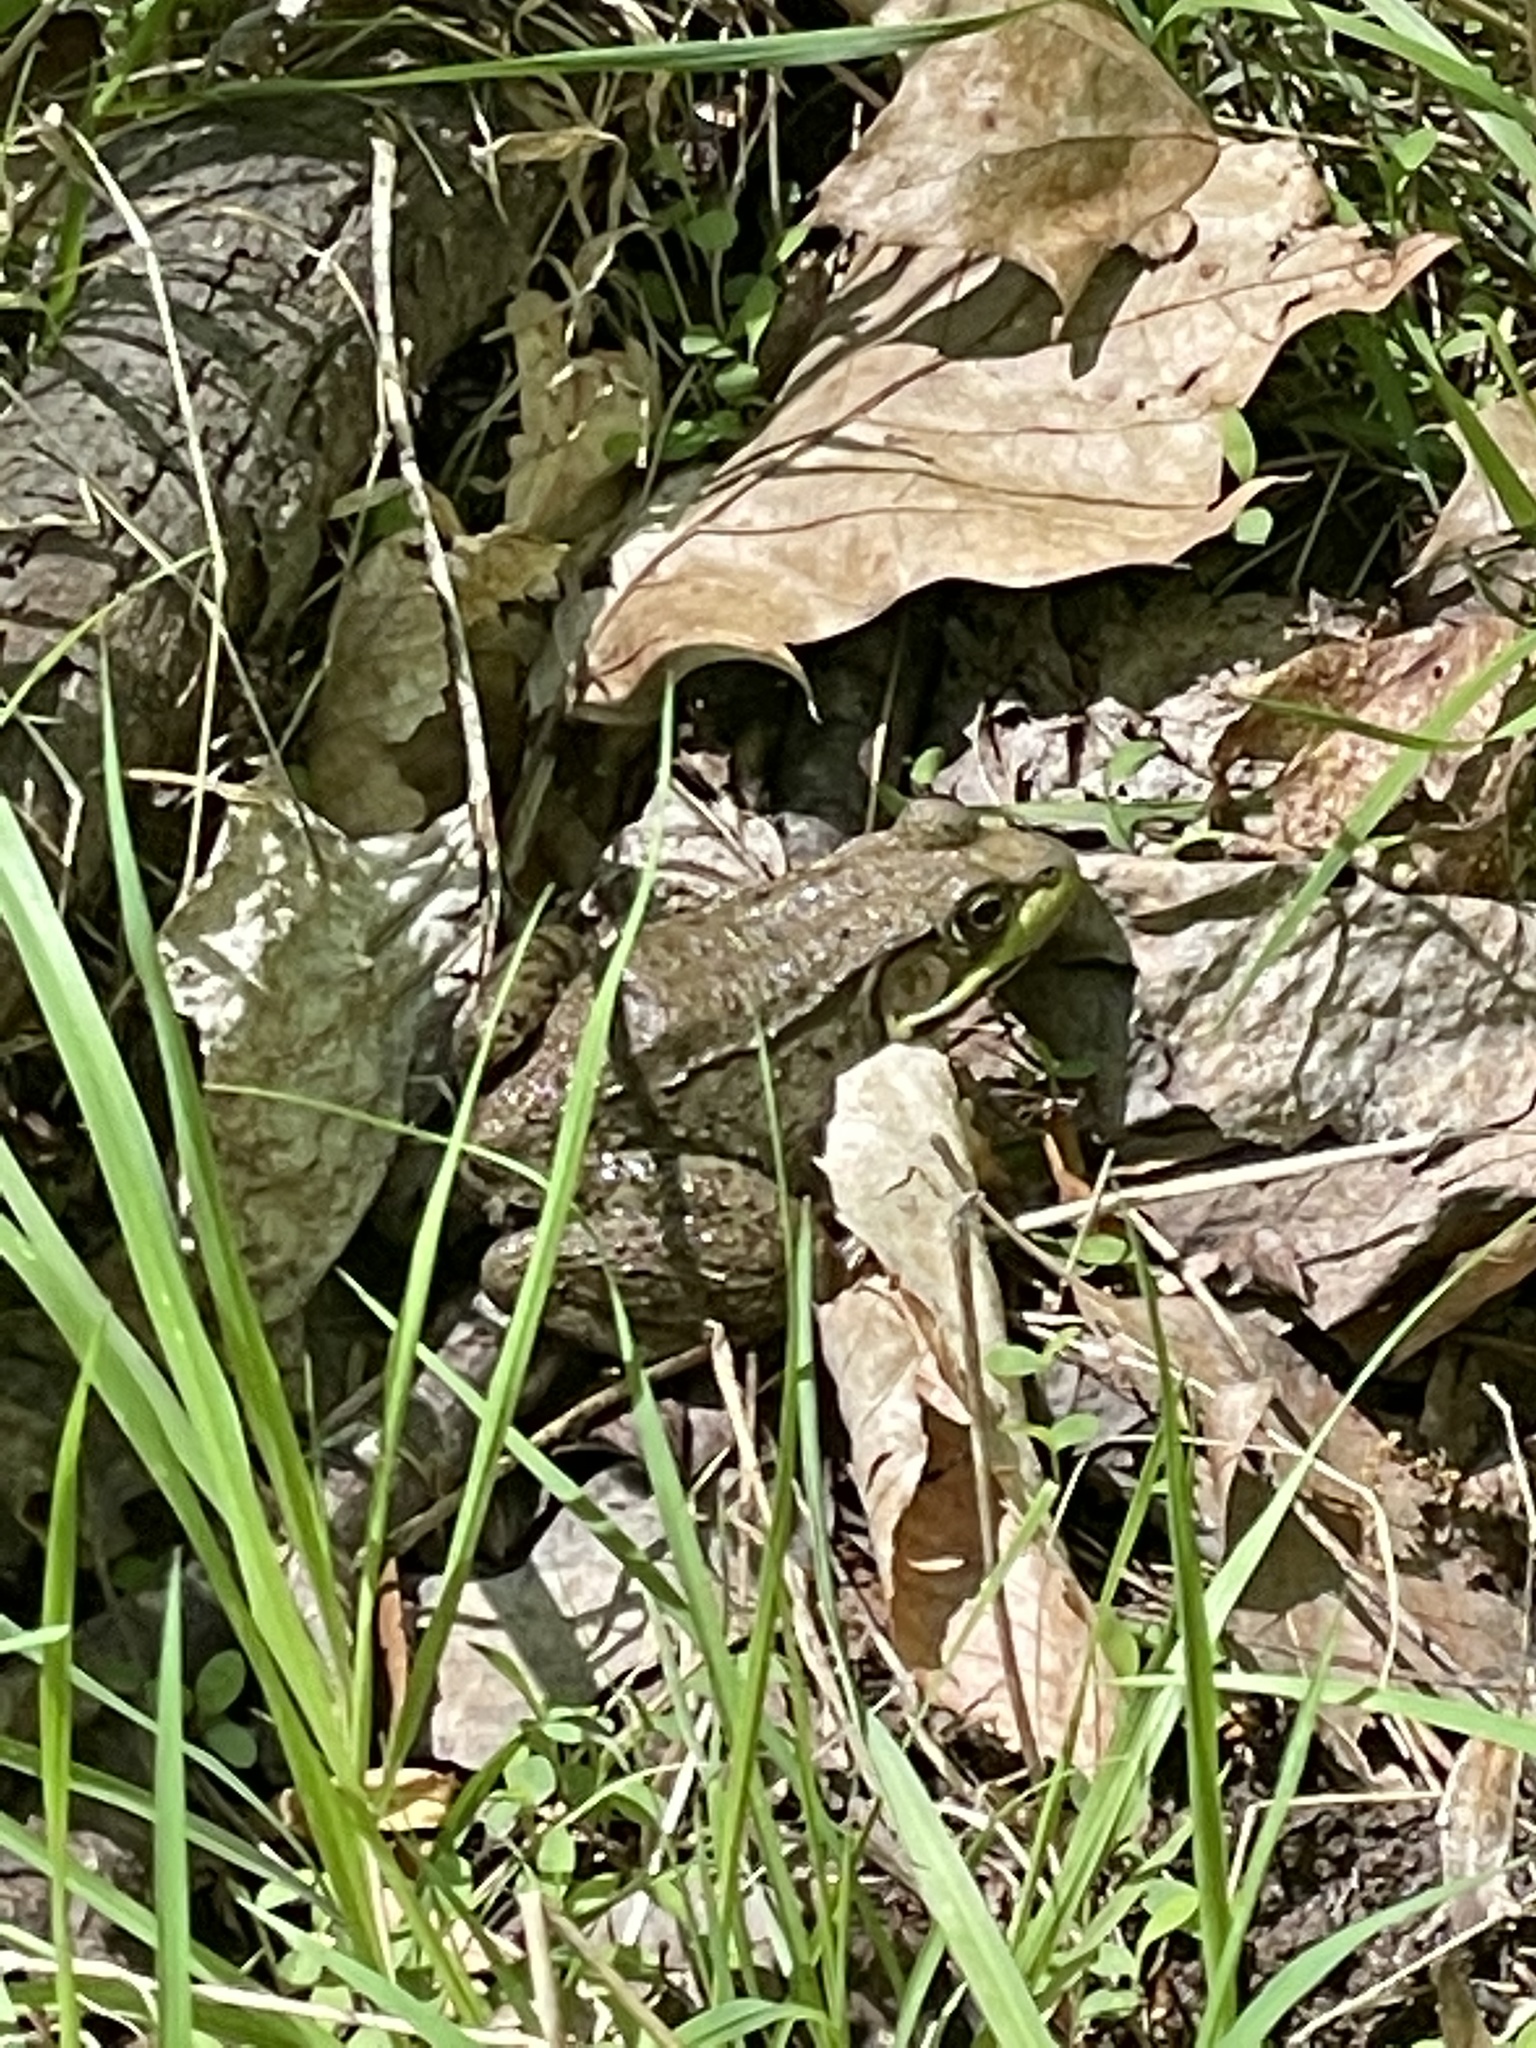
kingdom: Animalia
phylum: Chordata
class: Amphibia
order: Anura
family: Ranidae
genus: Lithobates
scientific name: Lithobates clamitans
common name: Green frog
